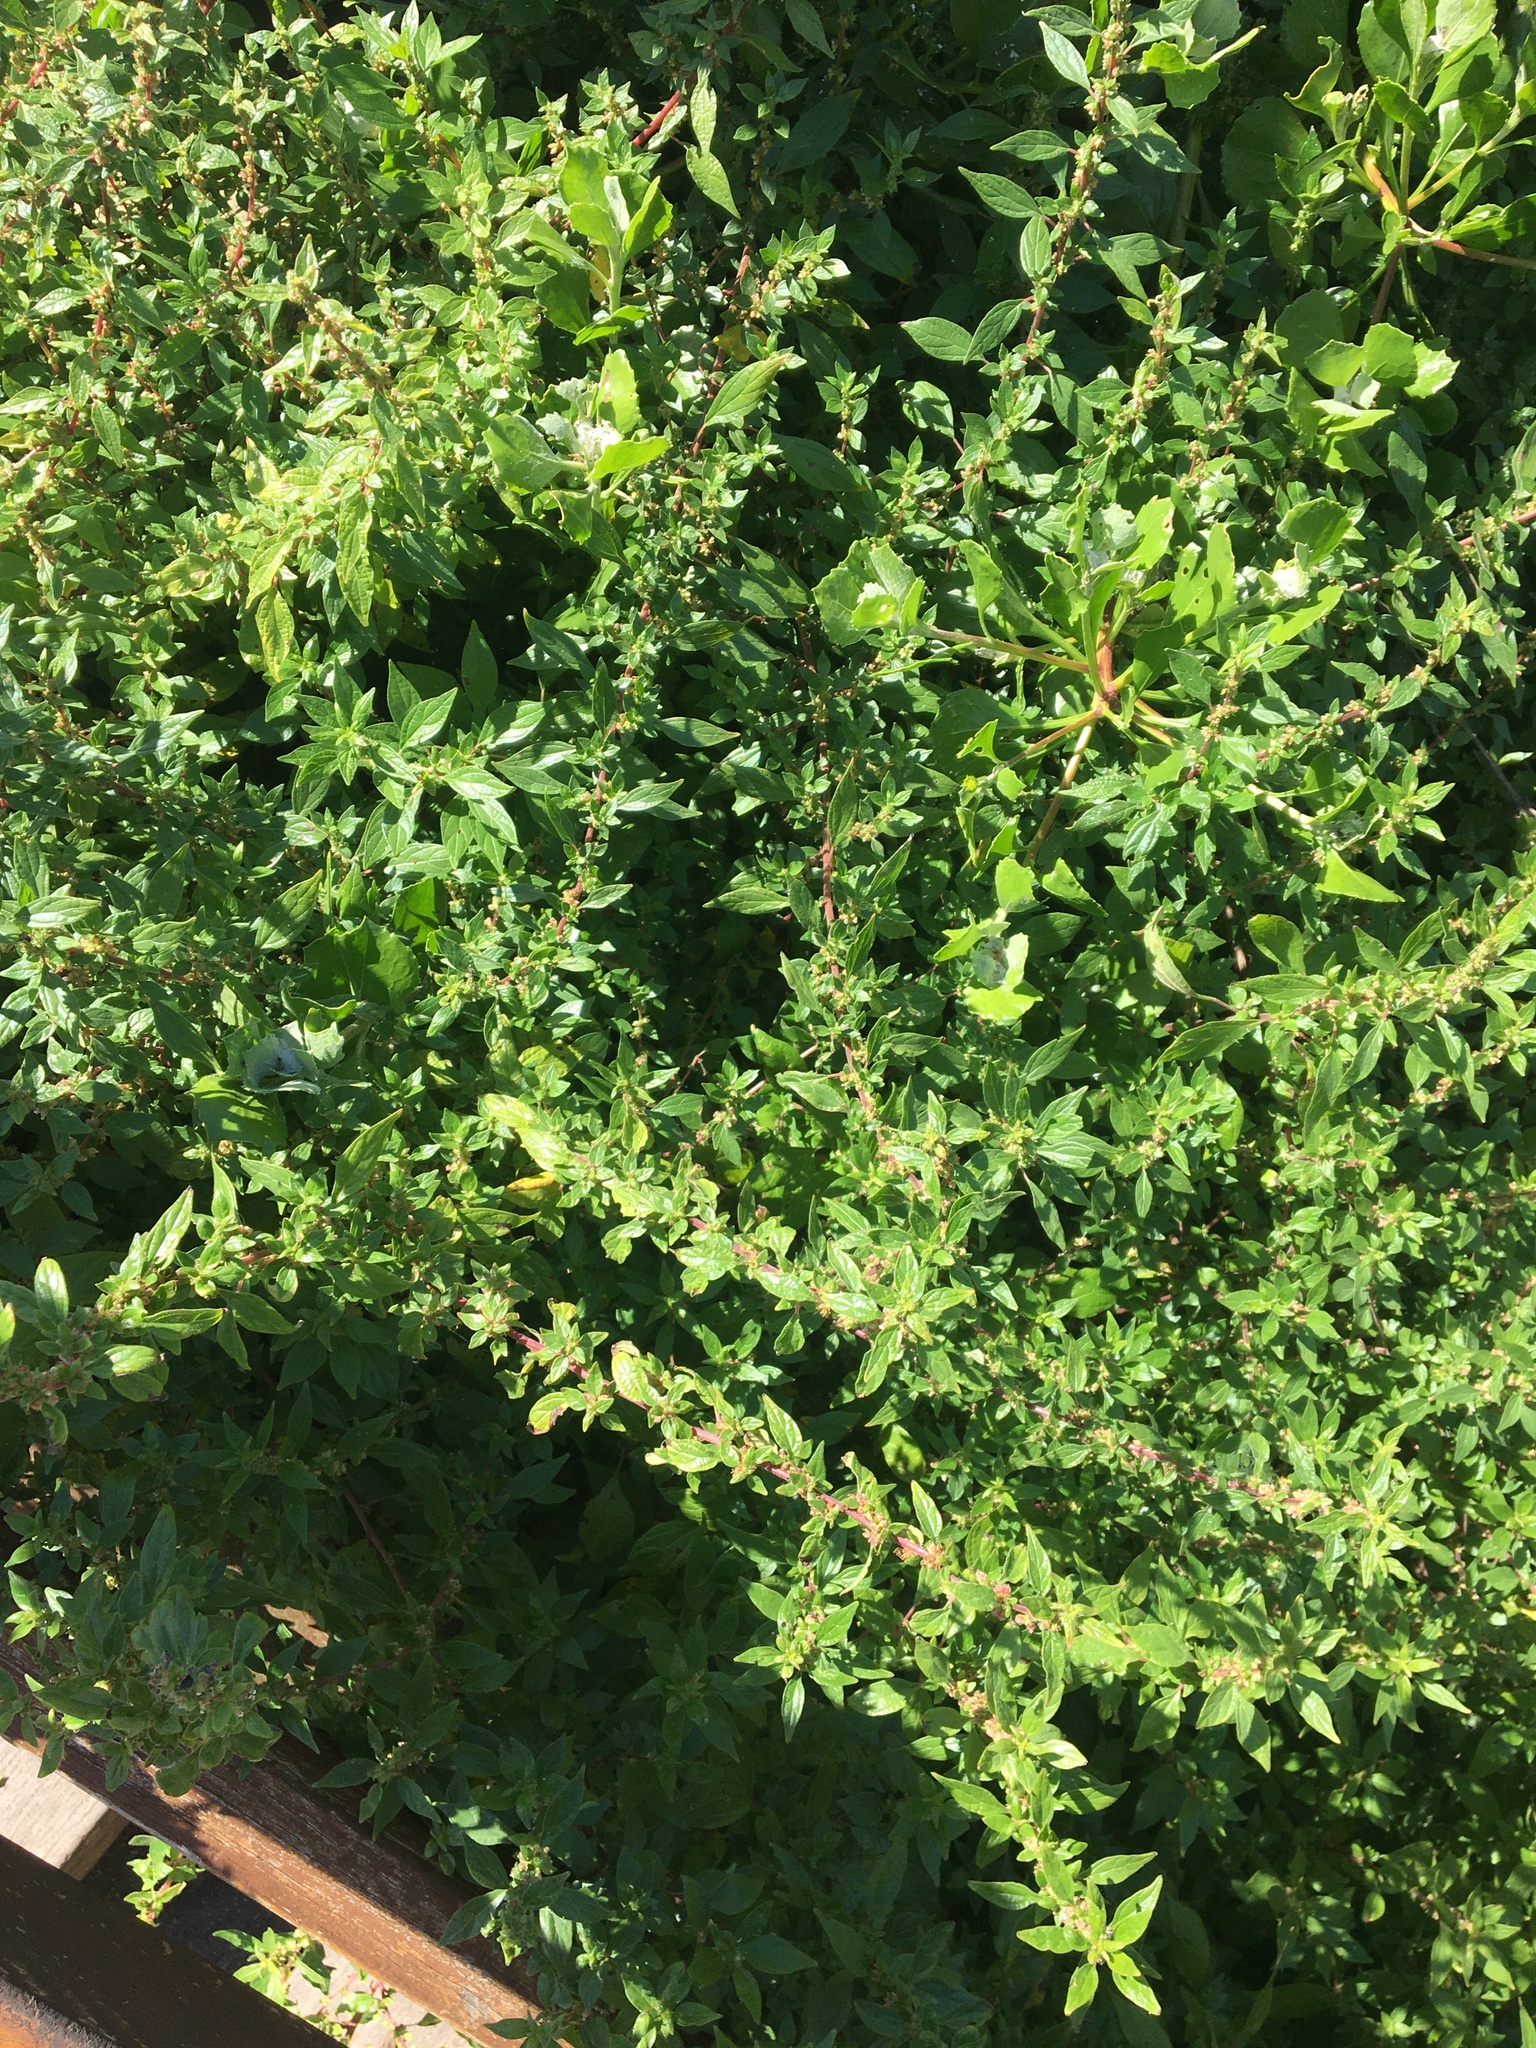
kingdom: Plantae
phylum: Tracheophyta
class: Magnoliopsida
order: Rosales
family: Urticaceae
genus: Parietaria
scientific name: Parietaria judaica
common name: Pellitory-of-the-wall
